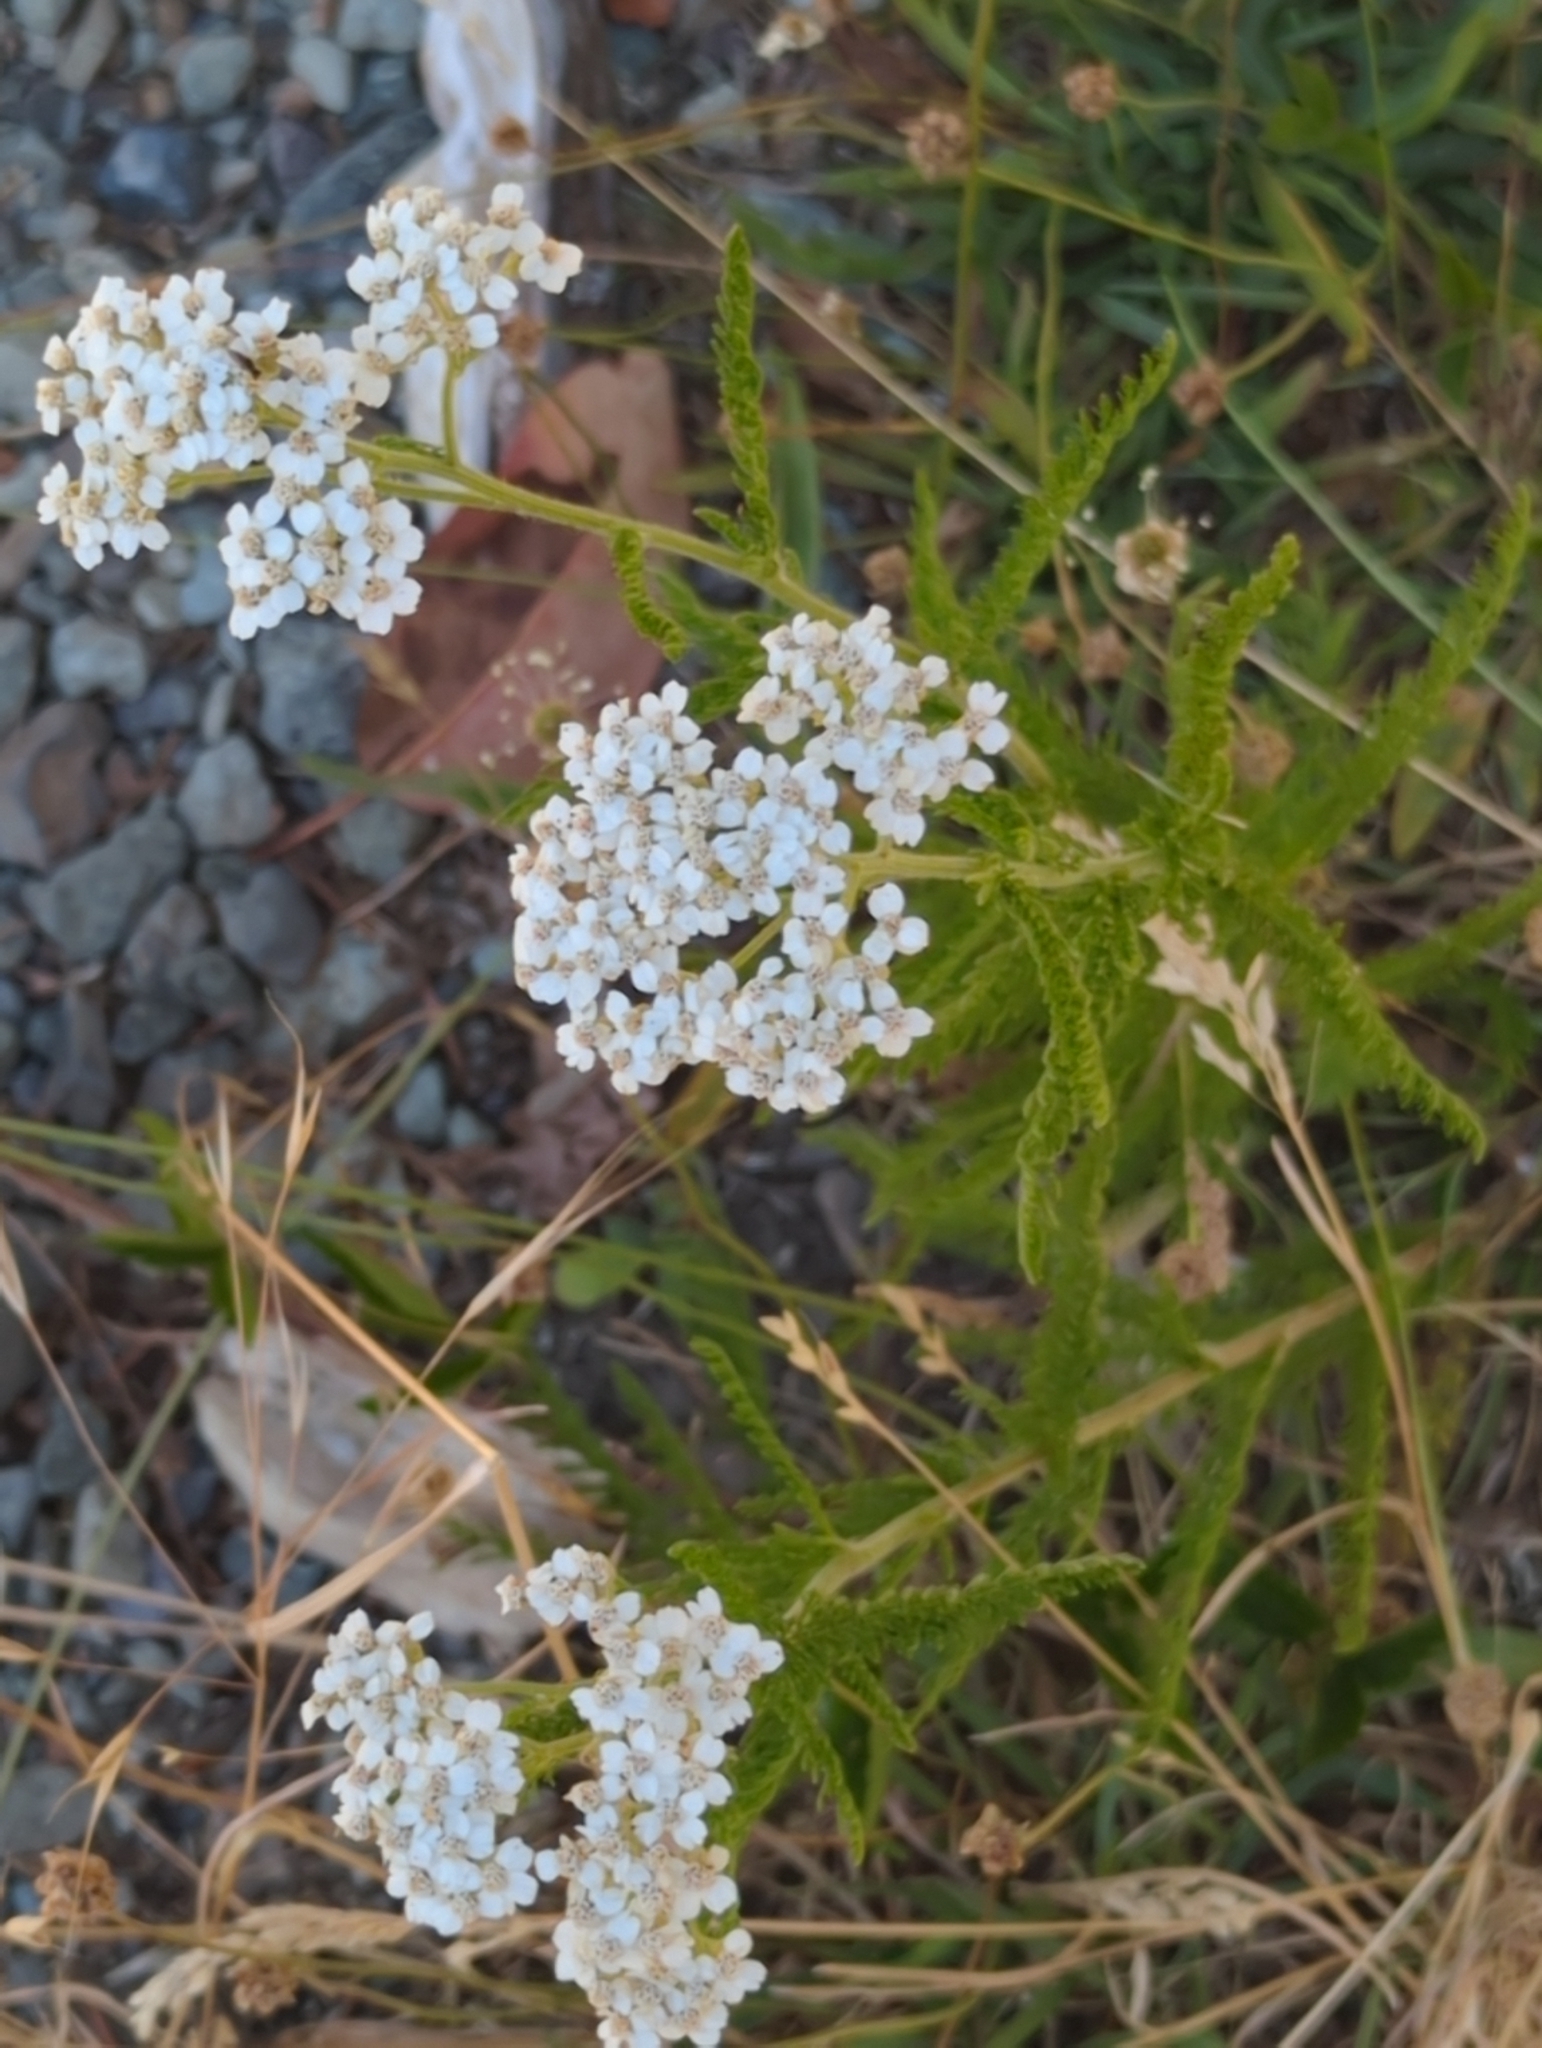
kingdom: Plantae
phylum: Tracheophyta
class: Magnoliopsida
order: Asterales
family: Asteraceae
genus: Achillea
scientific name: Achillea millefolium
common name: Yarrow
